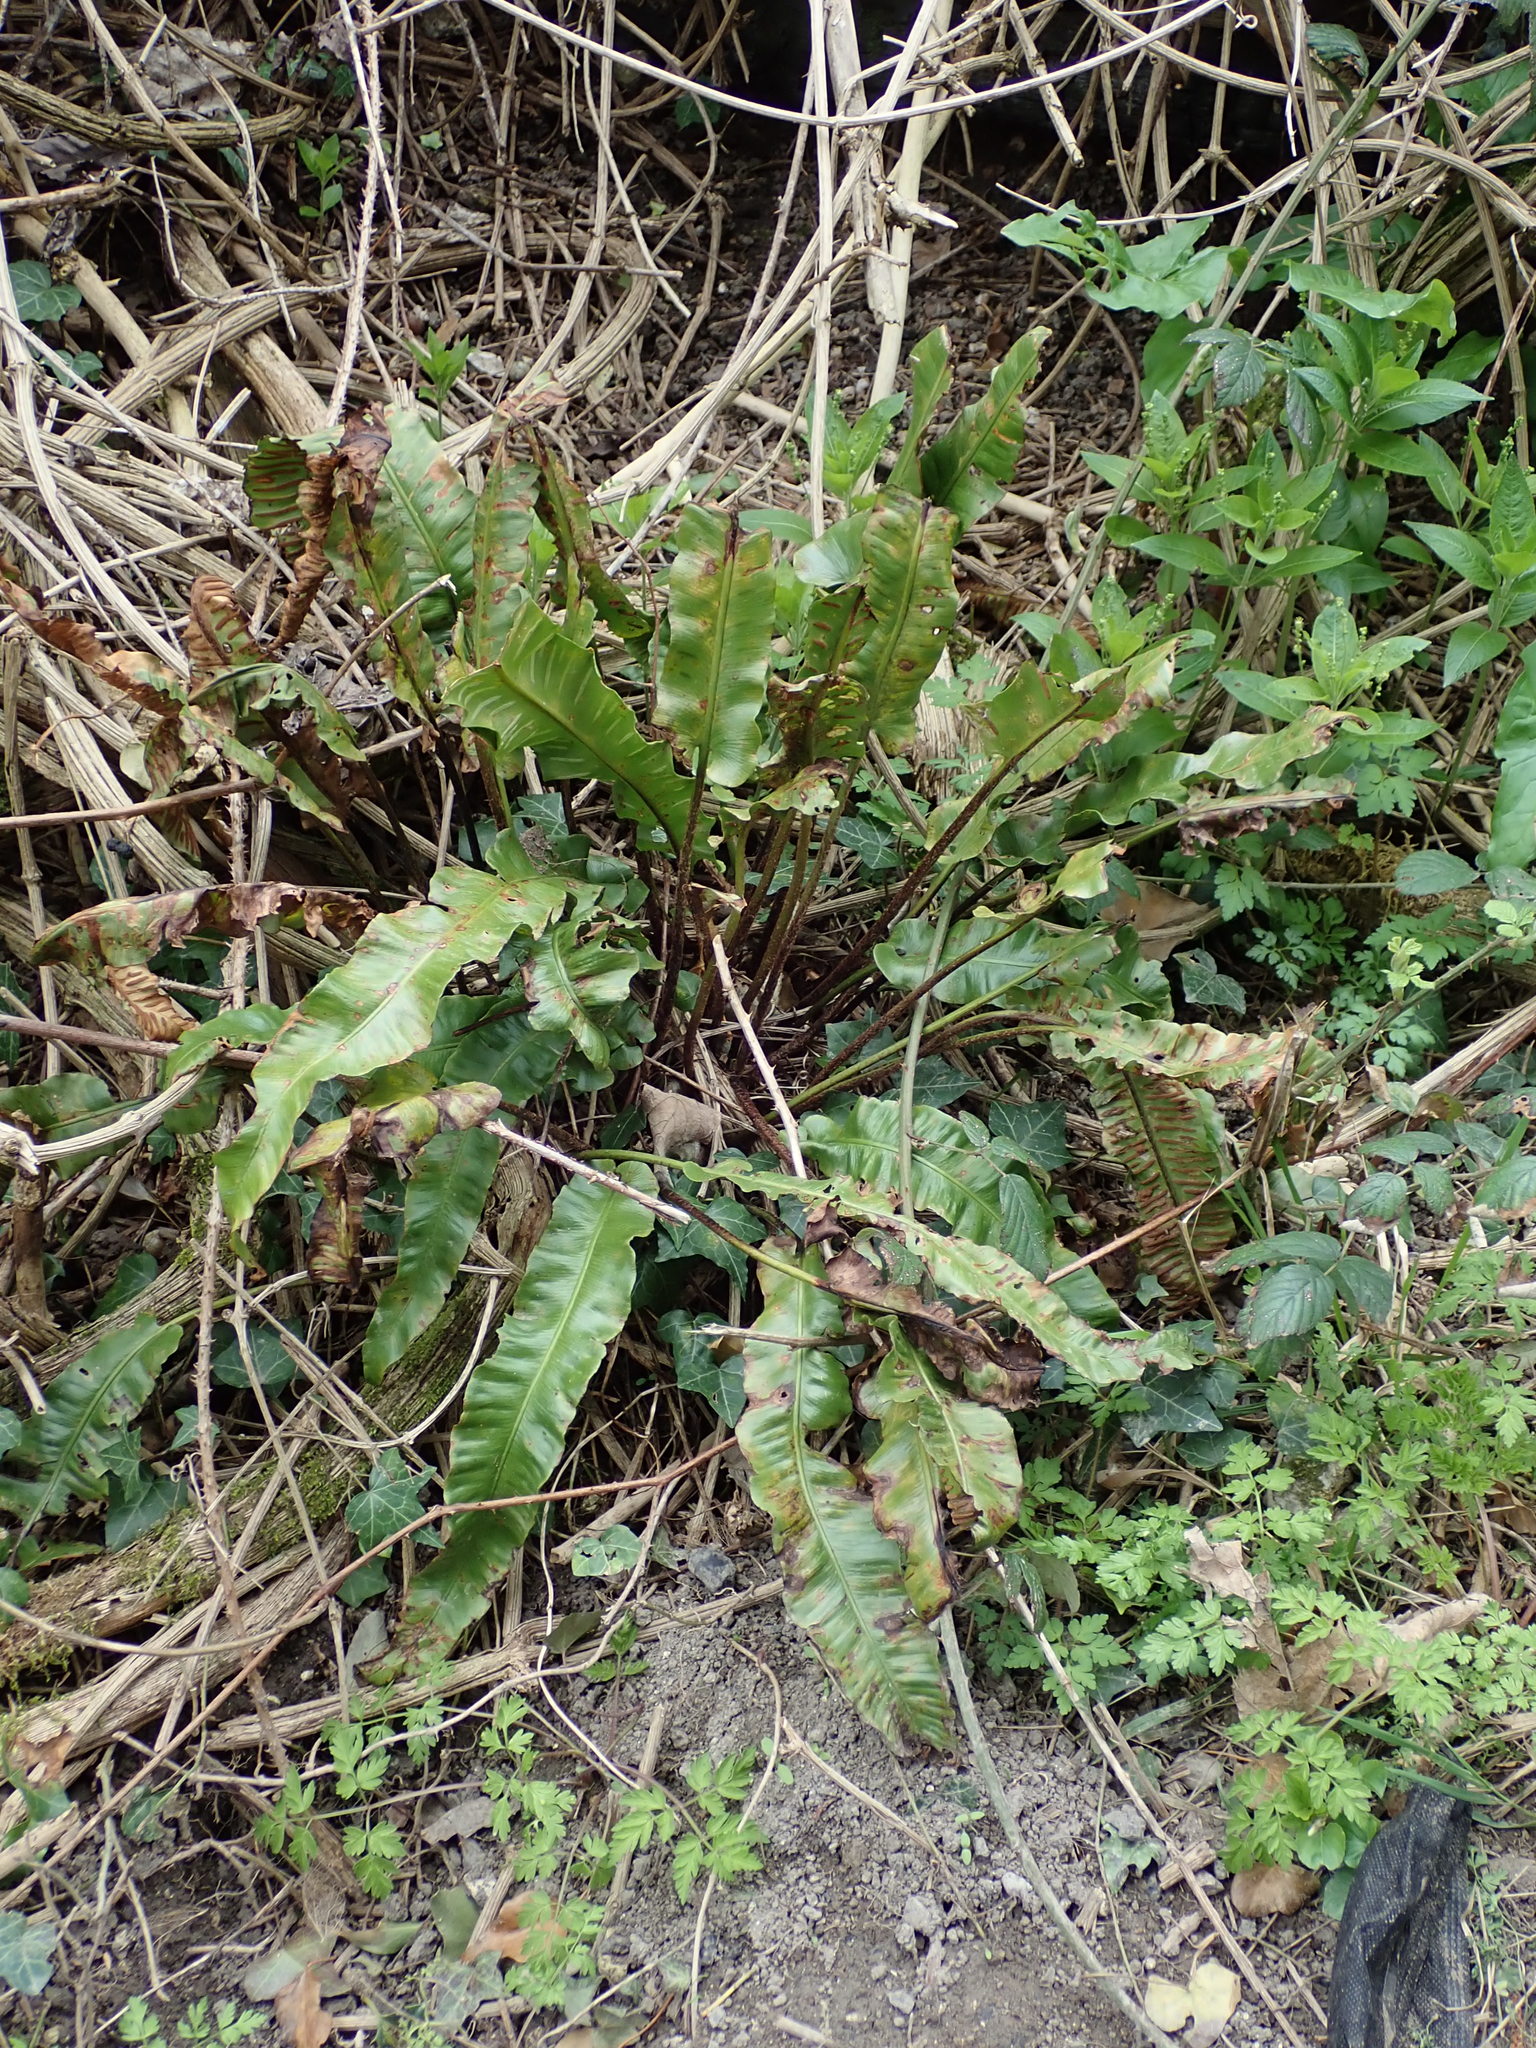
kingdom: Plantae
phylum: Tracheophyta
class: Polypodiopsida
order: Polypodiales
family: Aspleniaceae
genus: Asplenium
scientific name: Asplenium scolopendrium
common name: Hart's-tongue fern
